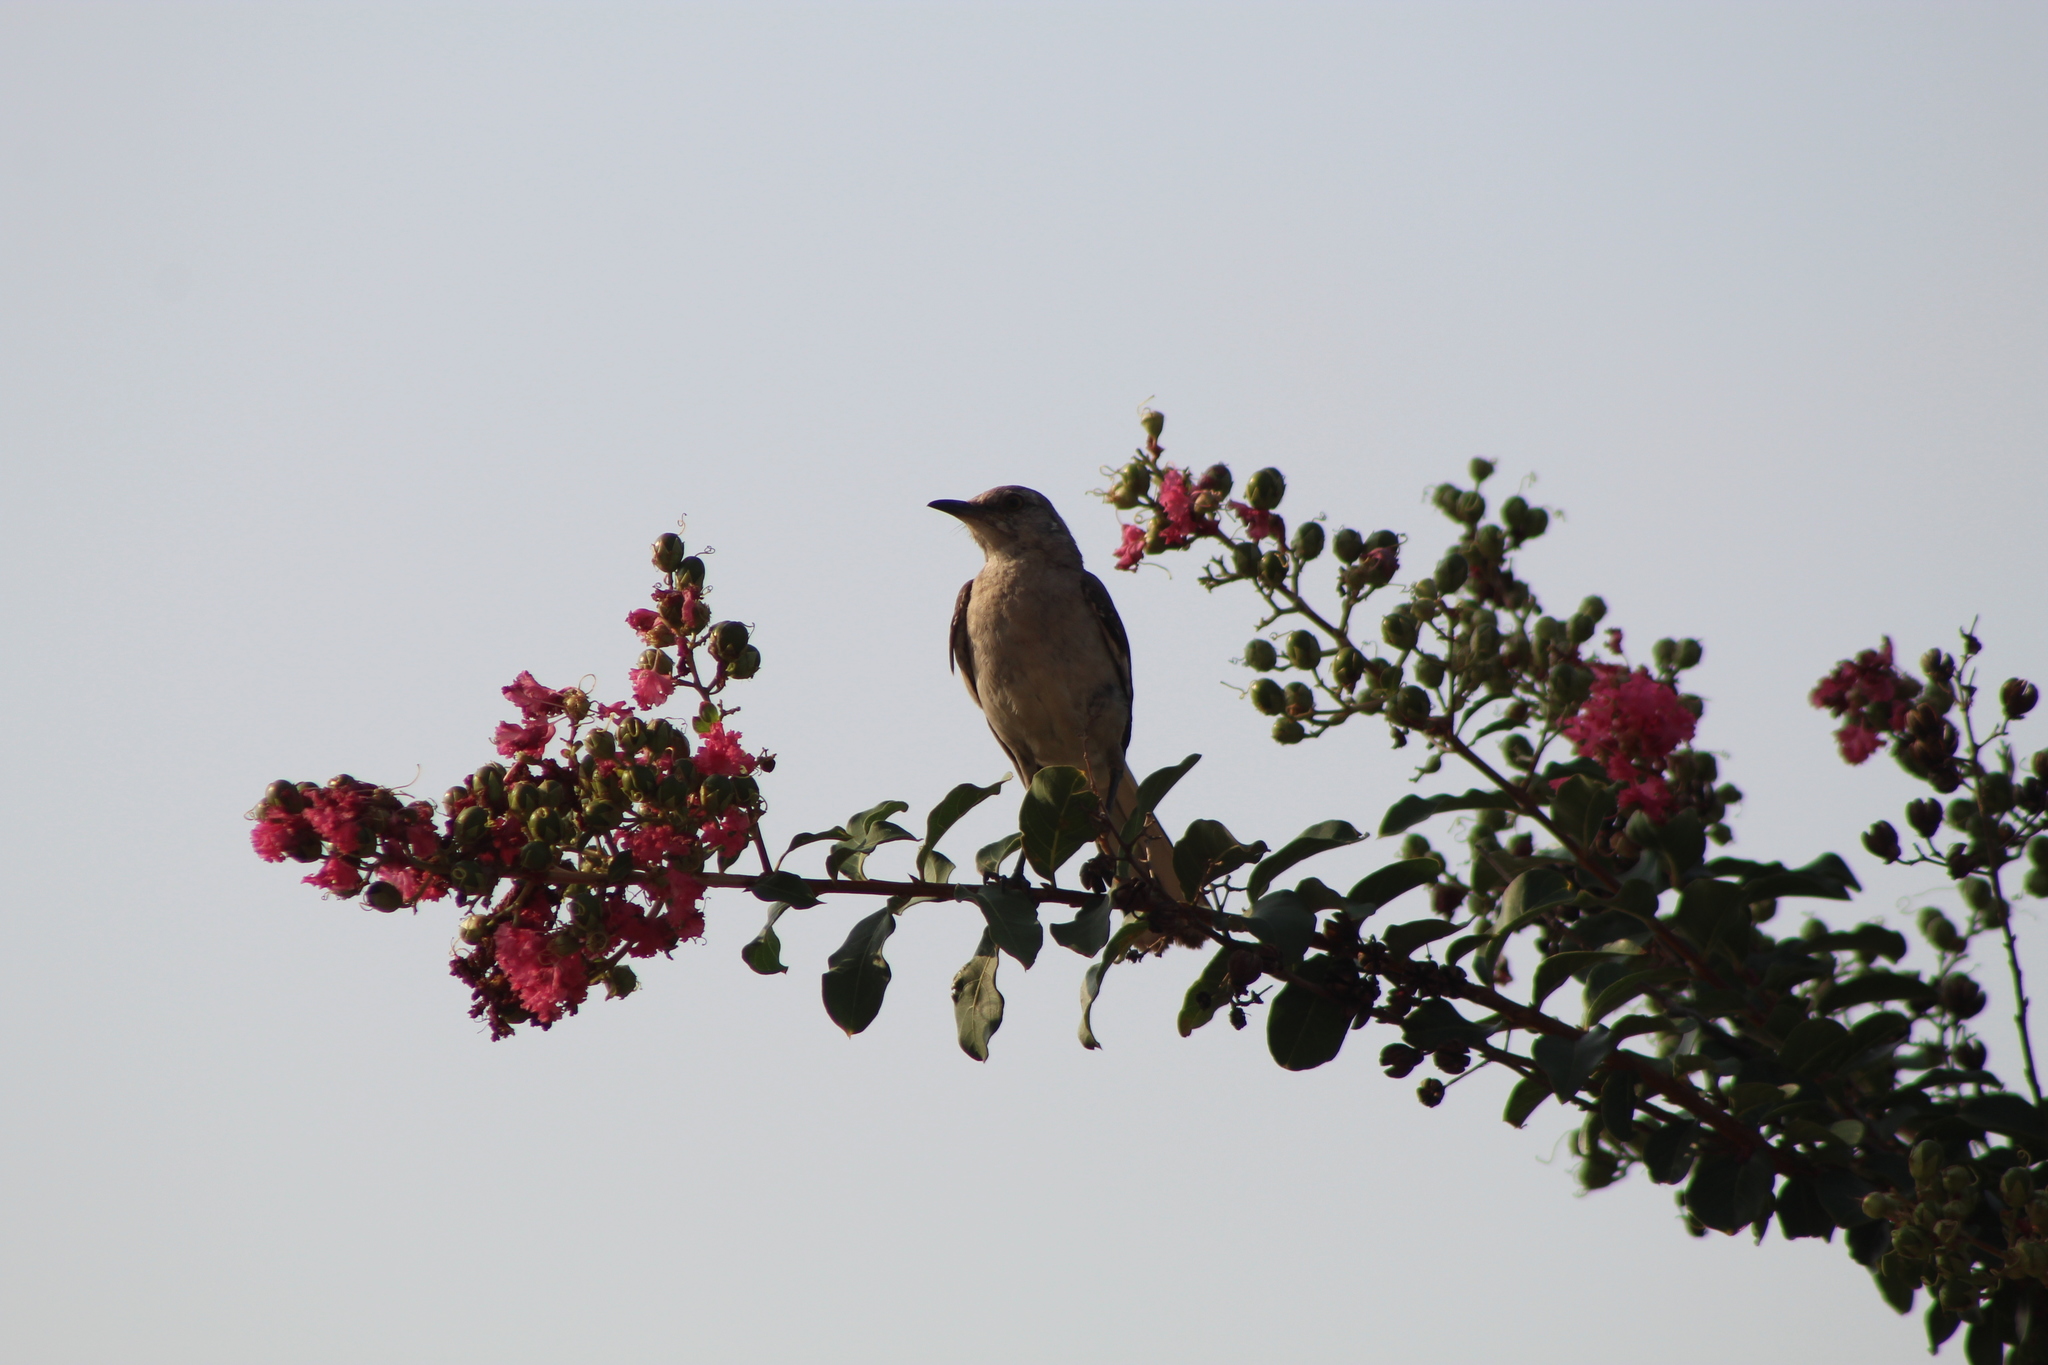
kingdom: Animalia
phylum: Chordata
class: Aves
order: Passeriformes
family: Mimidae
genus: Mimus
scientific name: Mimus polyglottos
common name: Northern mockingbird
